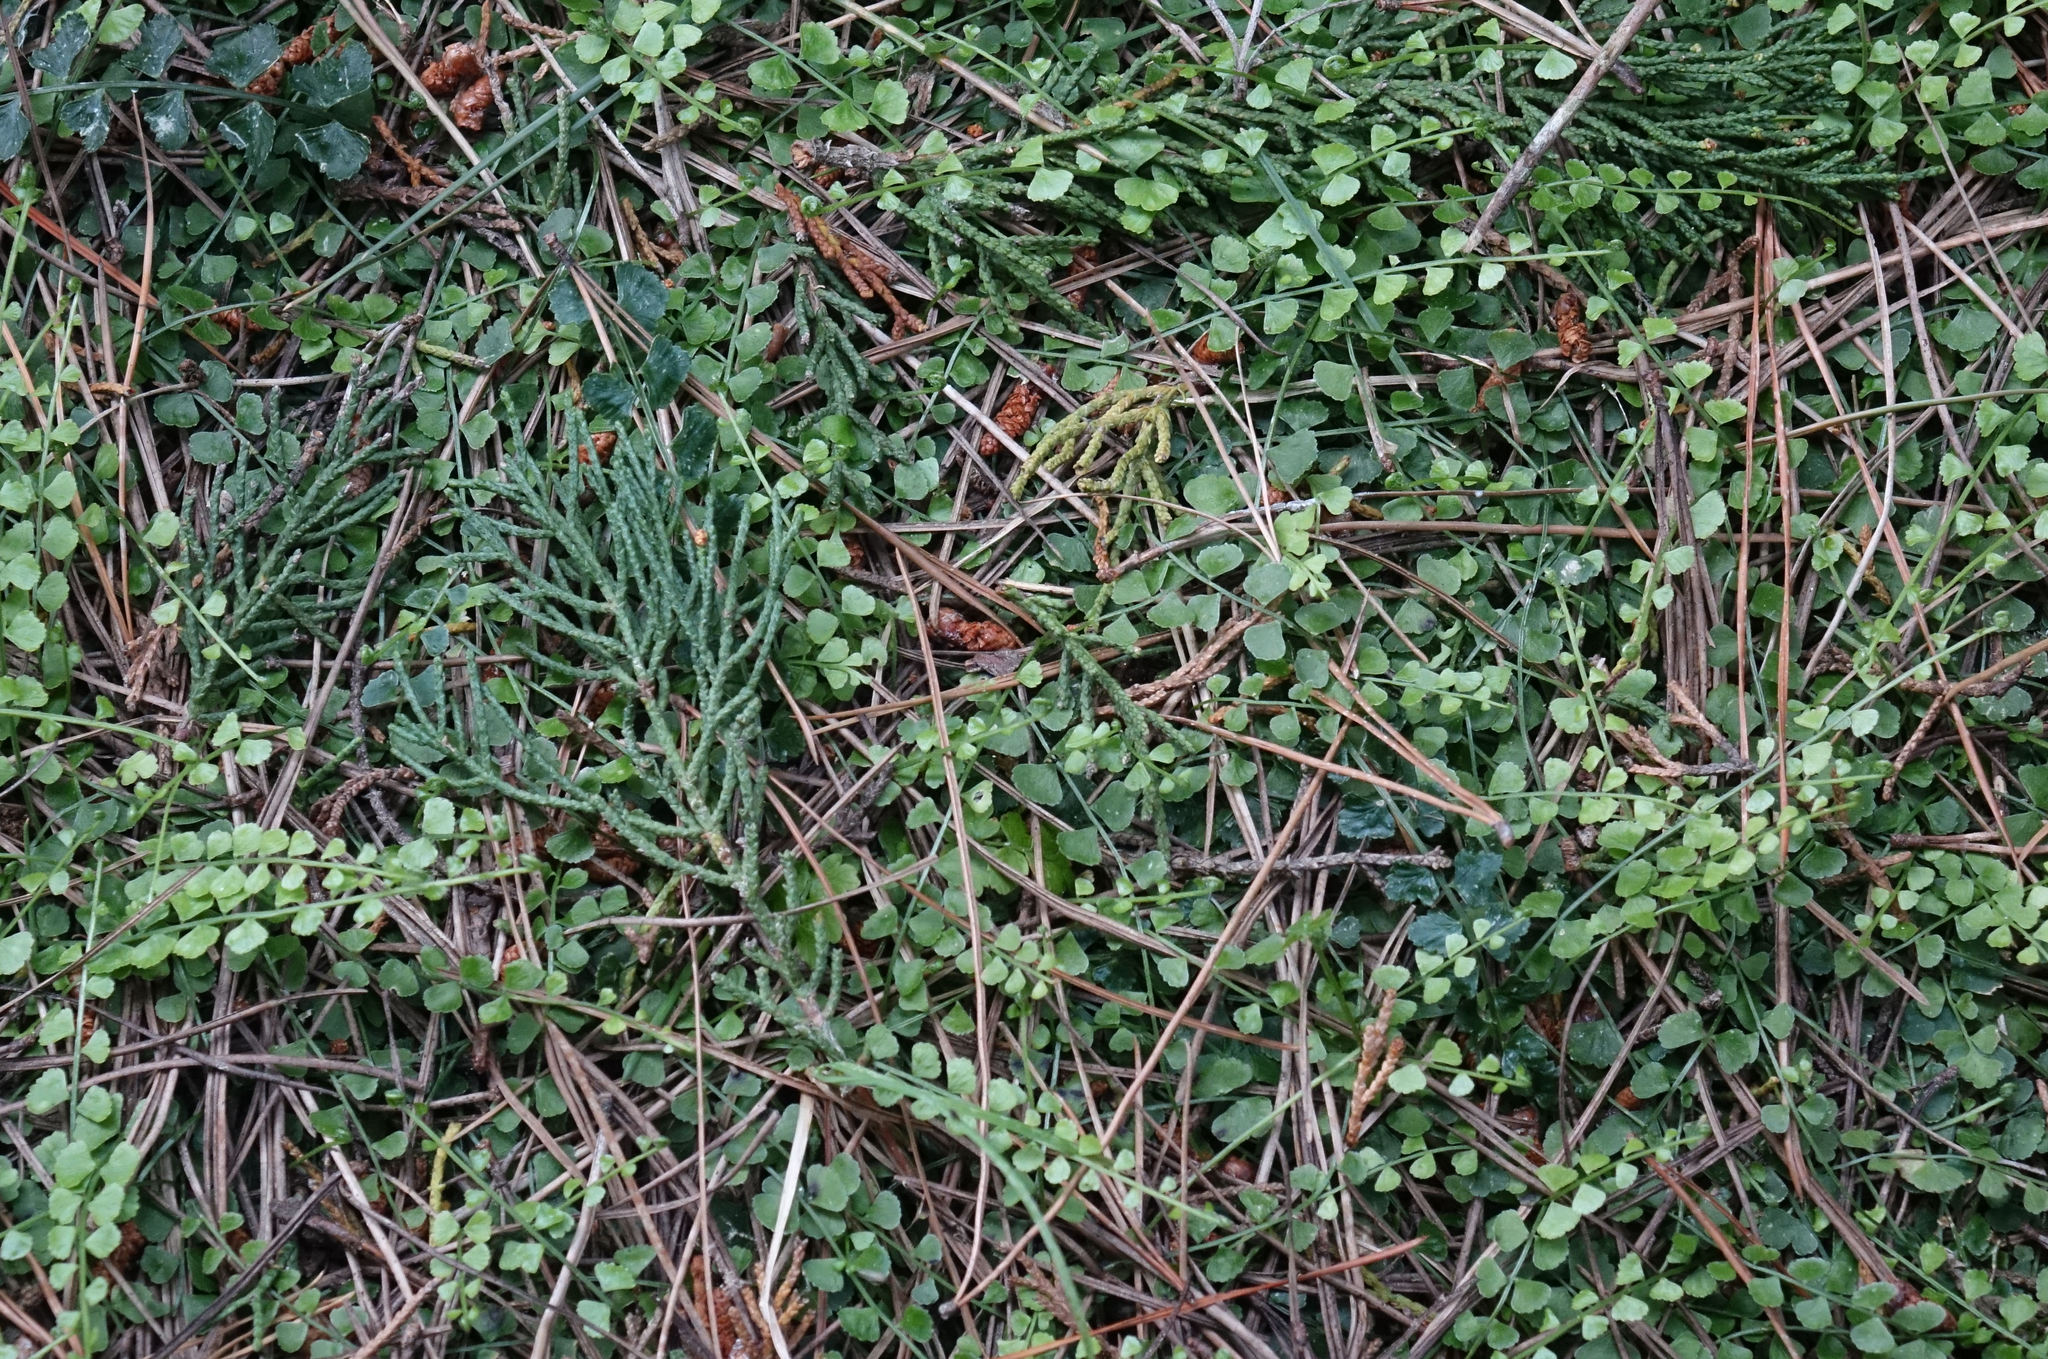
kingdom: Plantae
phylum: Tracheophyta
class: Polypodiopsida
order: Polypodiales
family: Aspleniaceae
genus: Asplenium
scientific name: Asplenium flabellifolium
